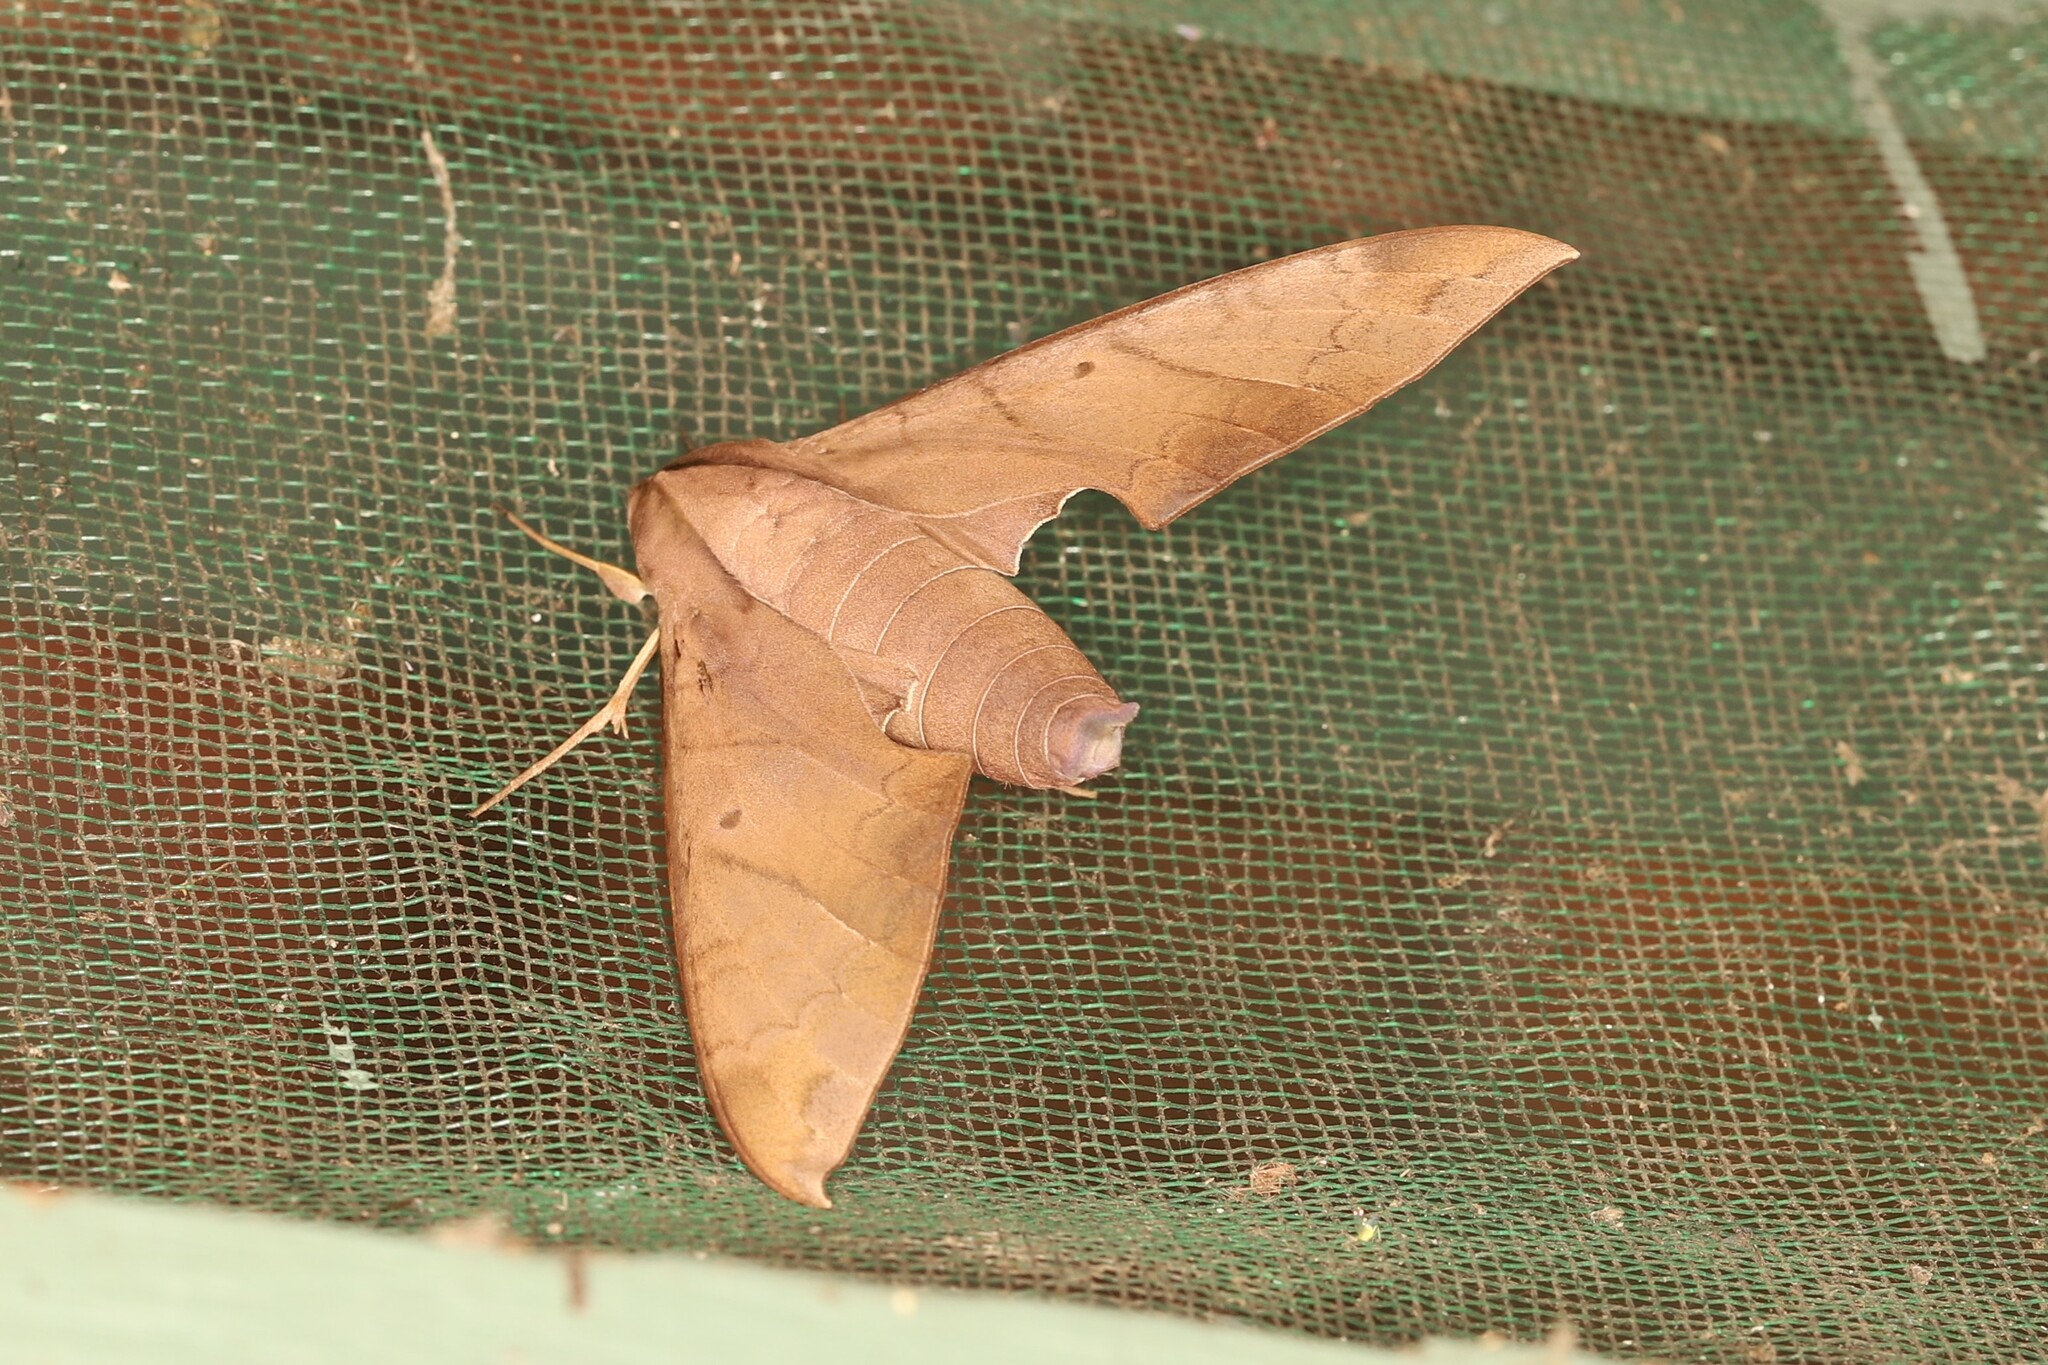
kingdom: Animalia
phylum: Arthropoda
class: Insecta
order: Lepidoptera
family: Sphingidae
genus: Pachylia
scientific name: Pachylia darceta
